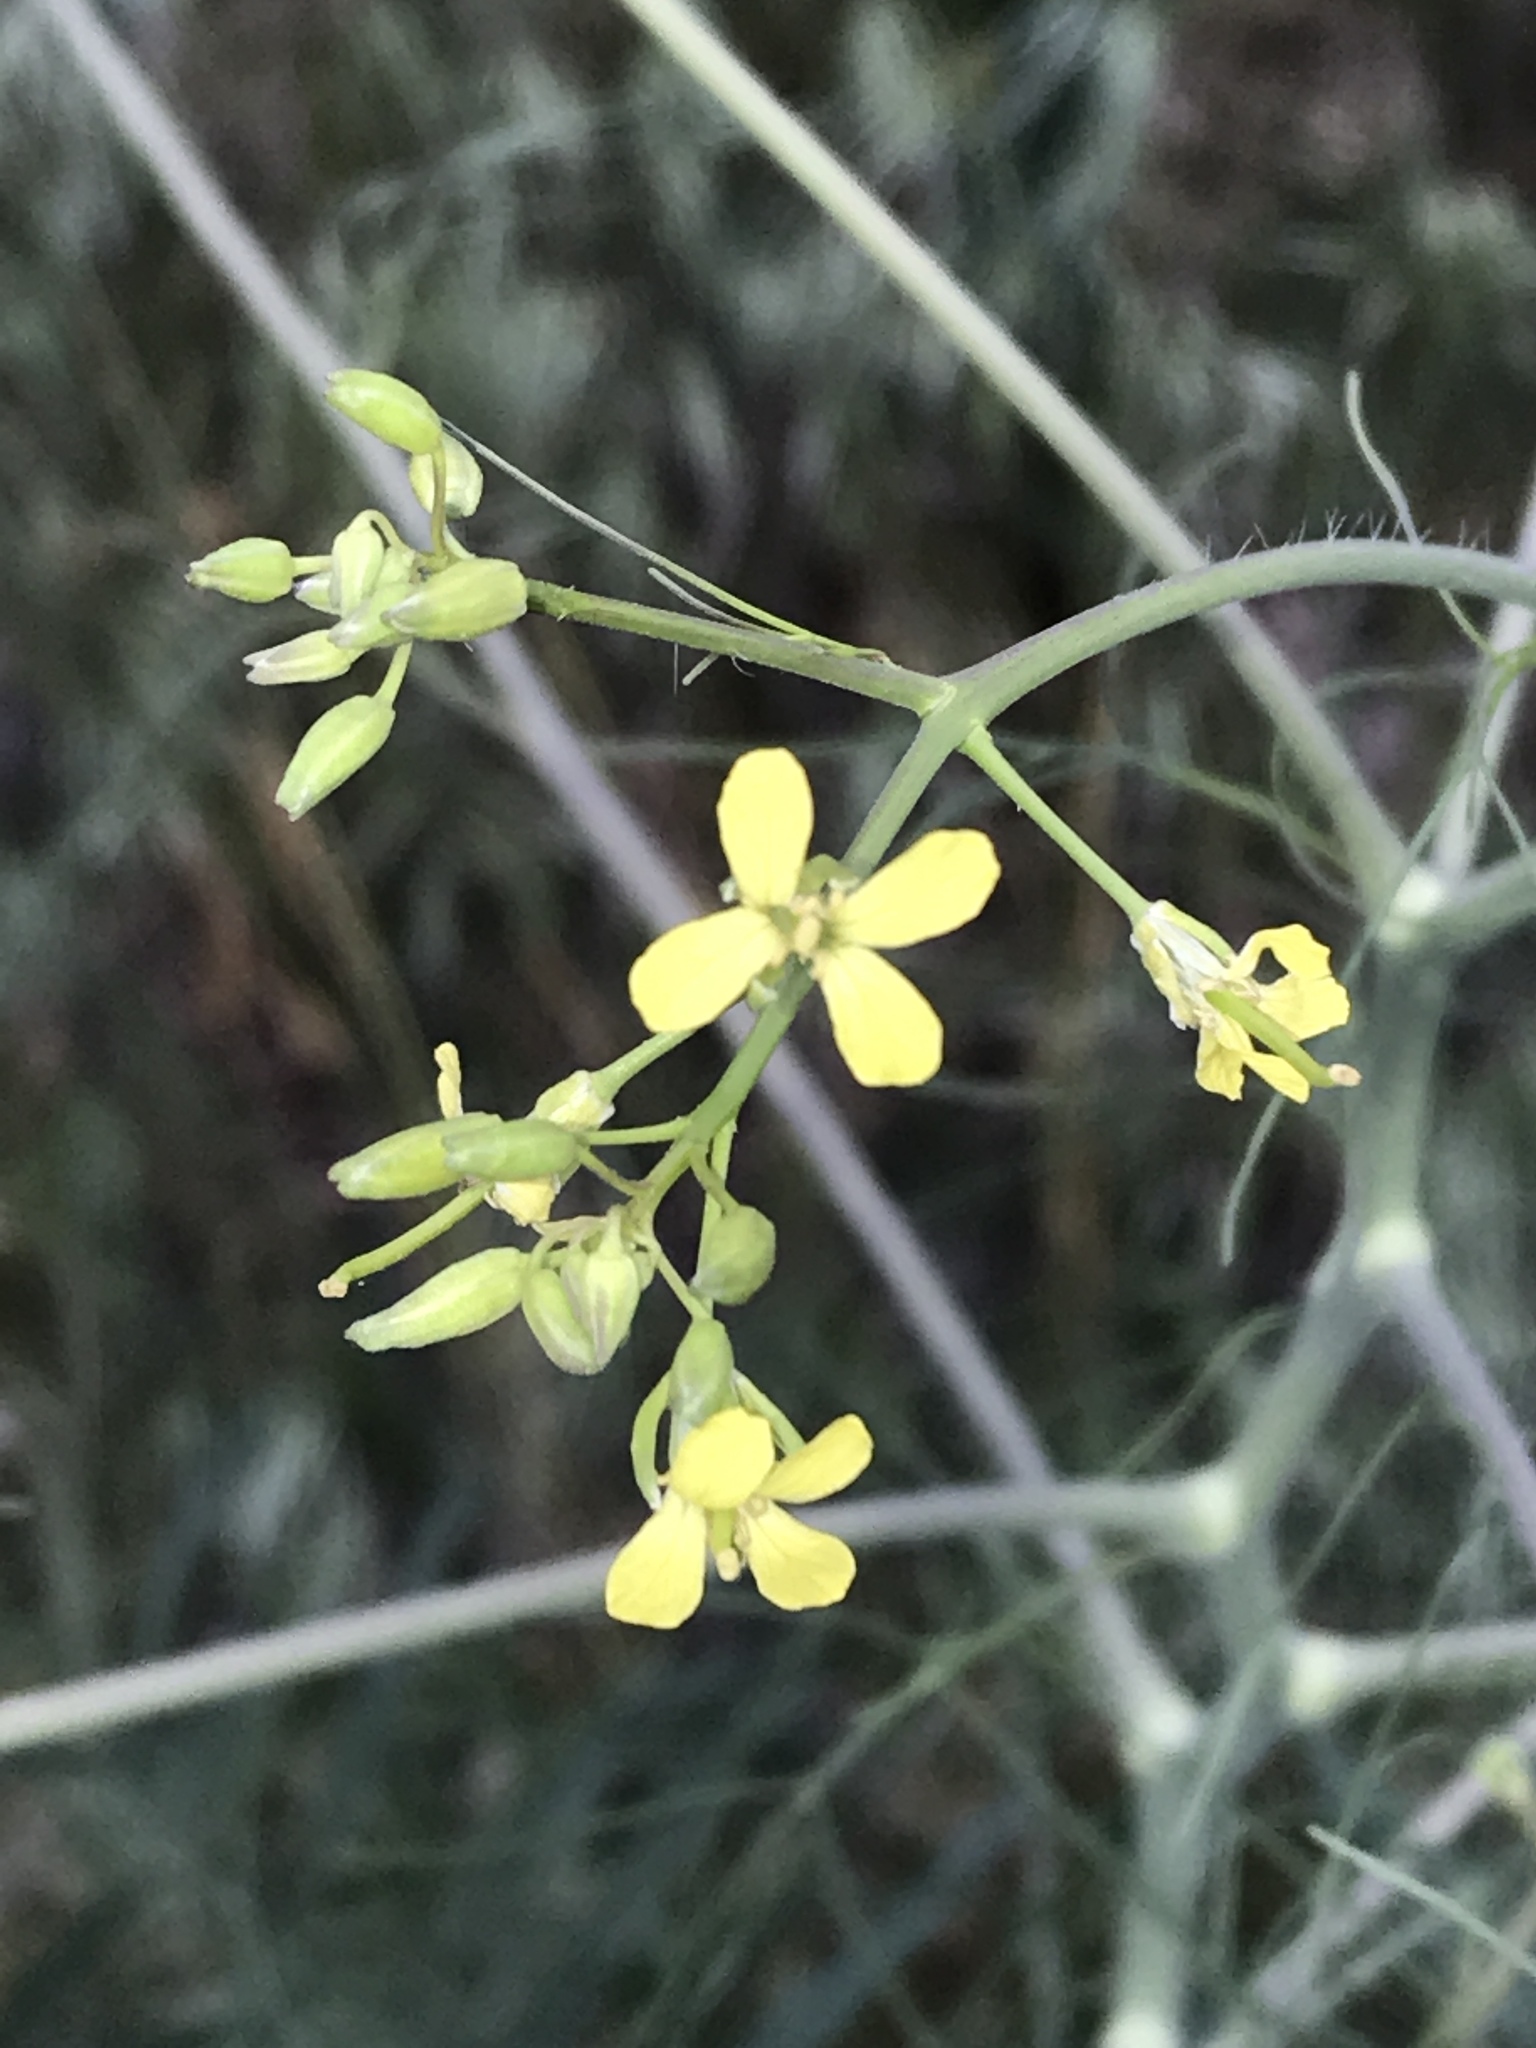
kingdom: Plantae
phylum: Tracheophyta
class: Magnoliopsida
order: Brassicales
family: Brassicaceae
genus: Sisymbrium
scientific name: Sisymbrium altissimum
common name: Tall rocket
